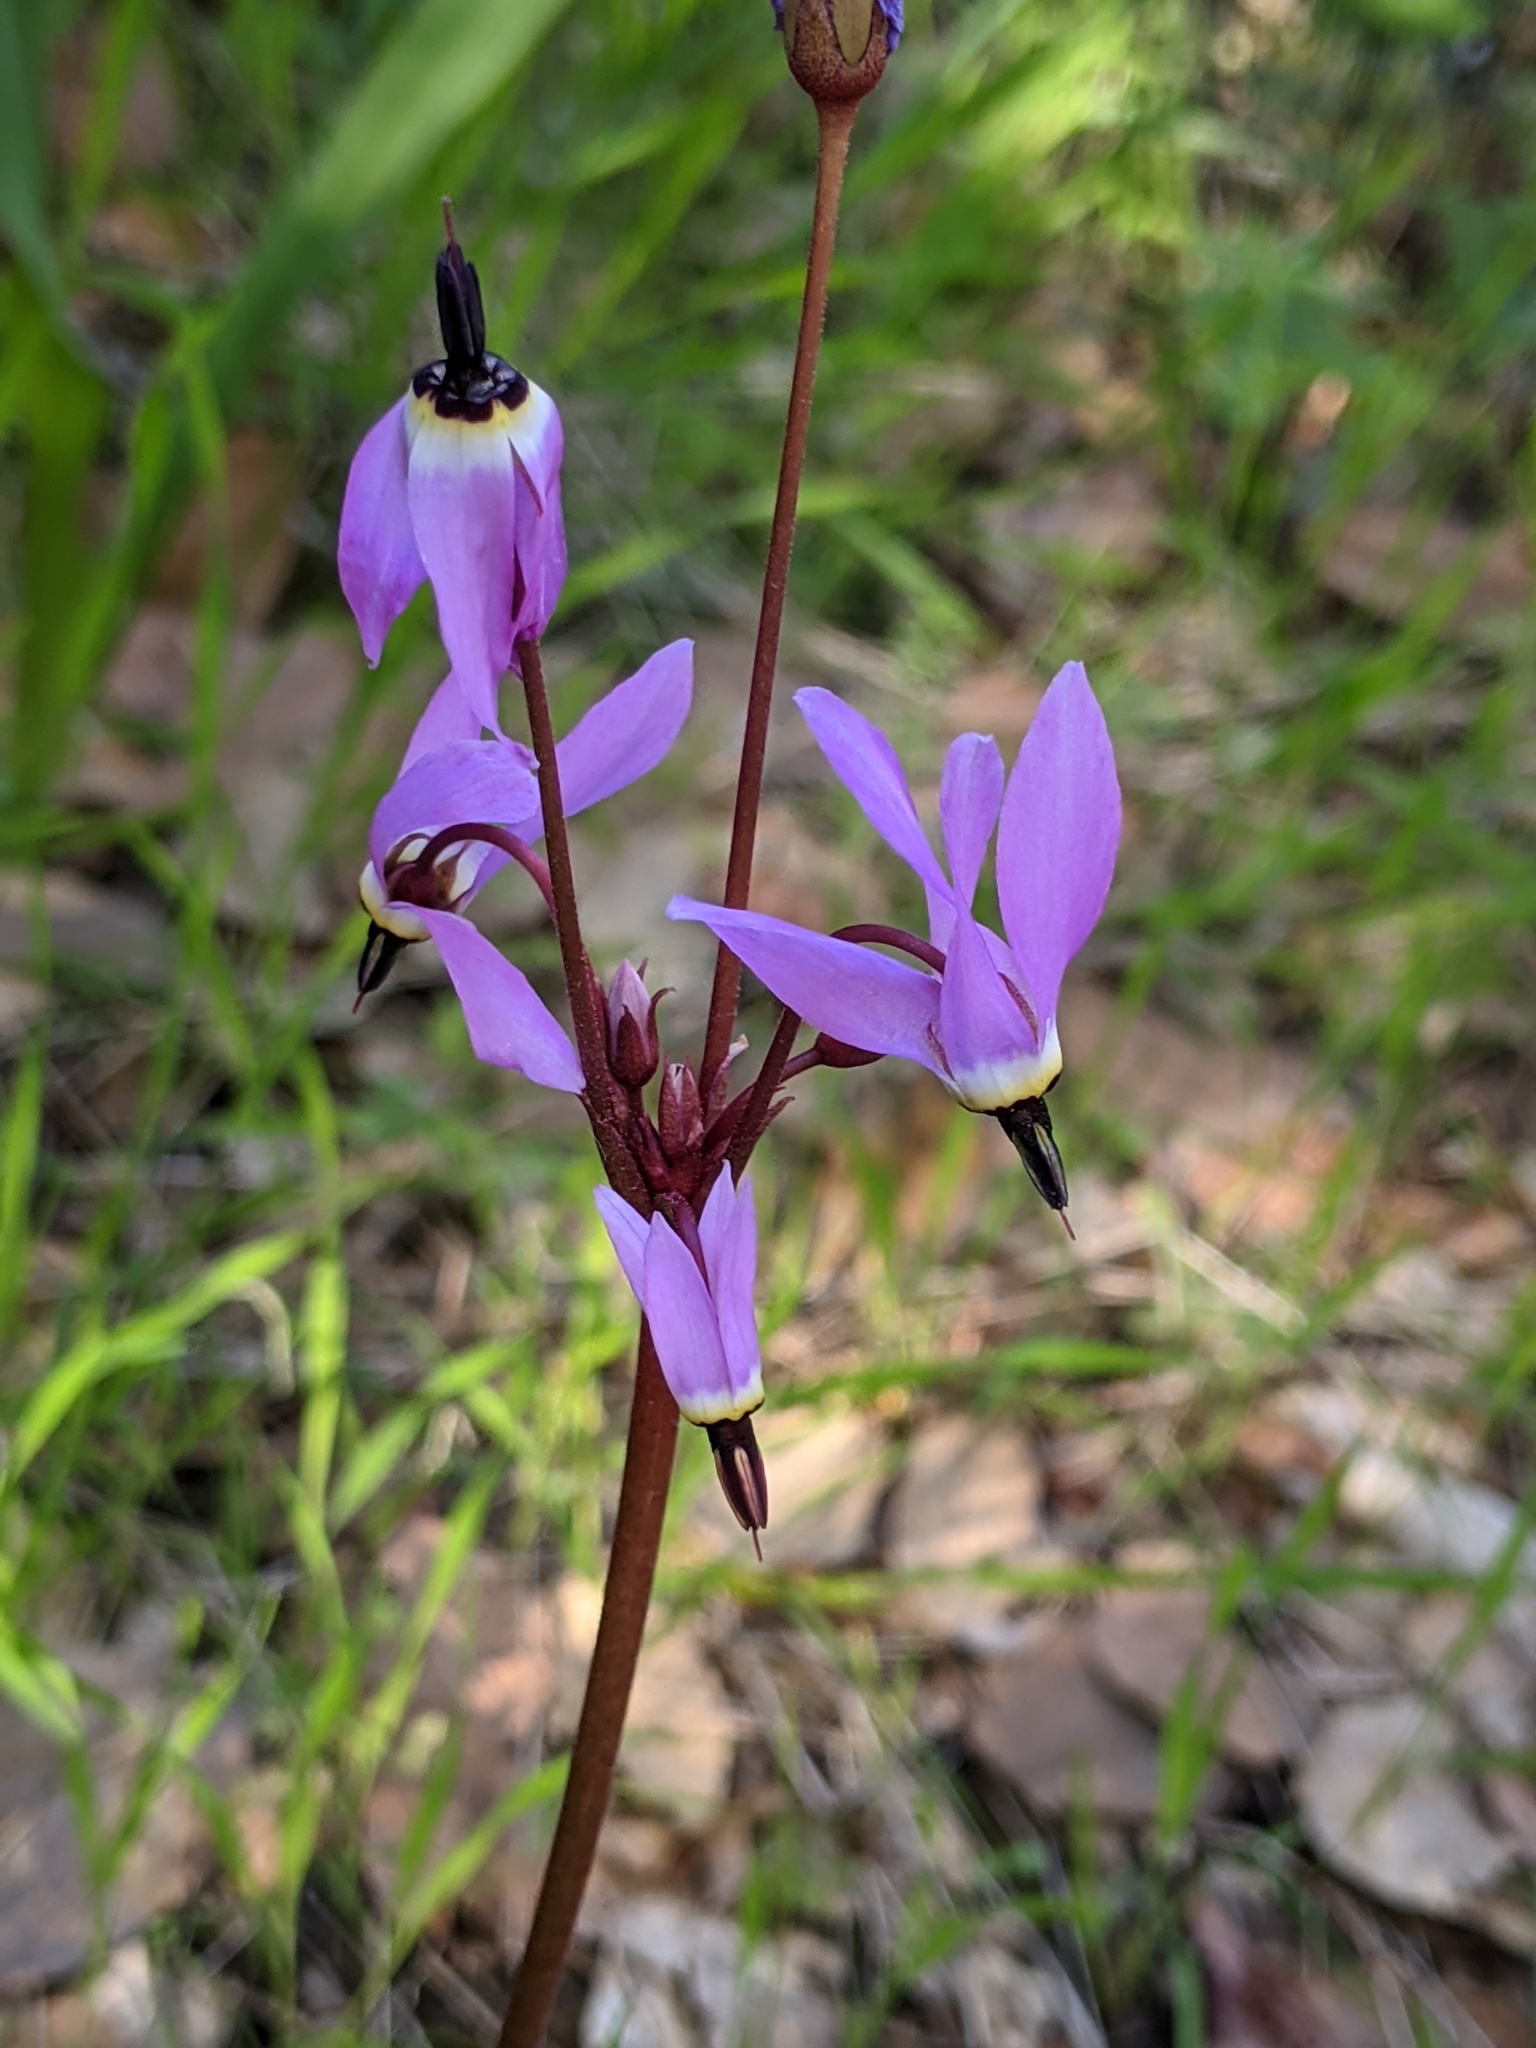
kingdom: Plantae
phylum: Tracheophyta
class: Magnoliopsida
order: Ericales
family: Primulaceae
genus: Dodecatheon
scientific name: Dodecatheon hendersonii
